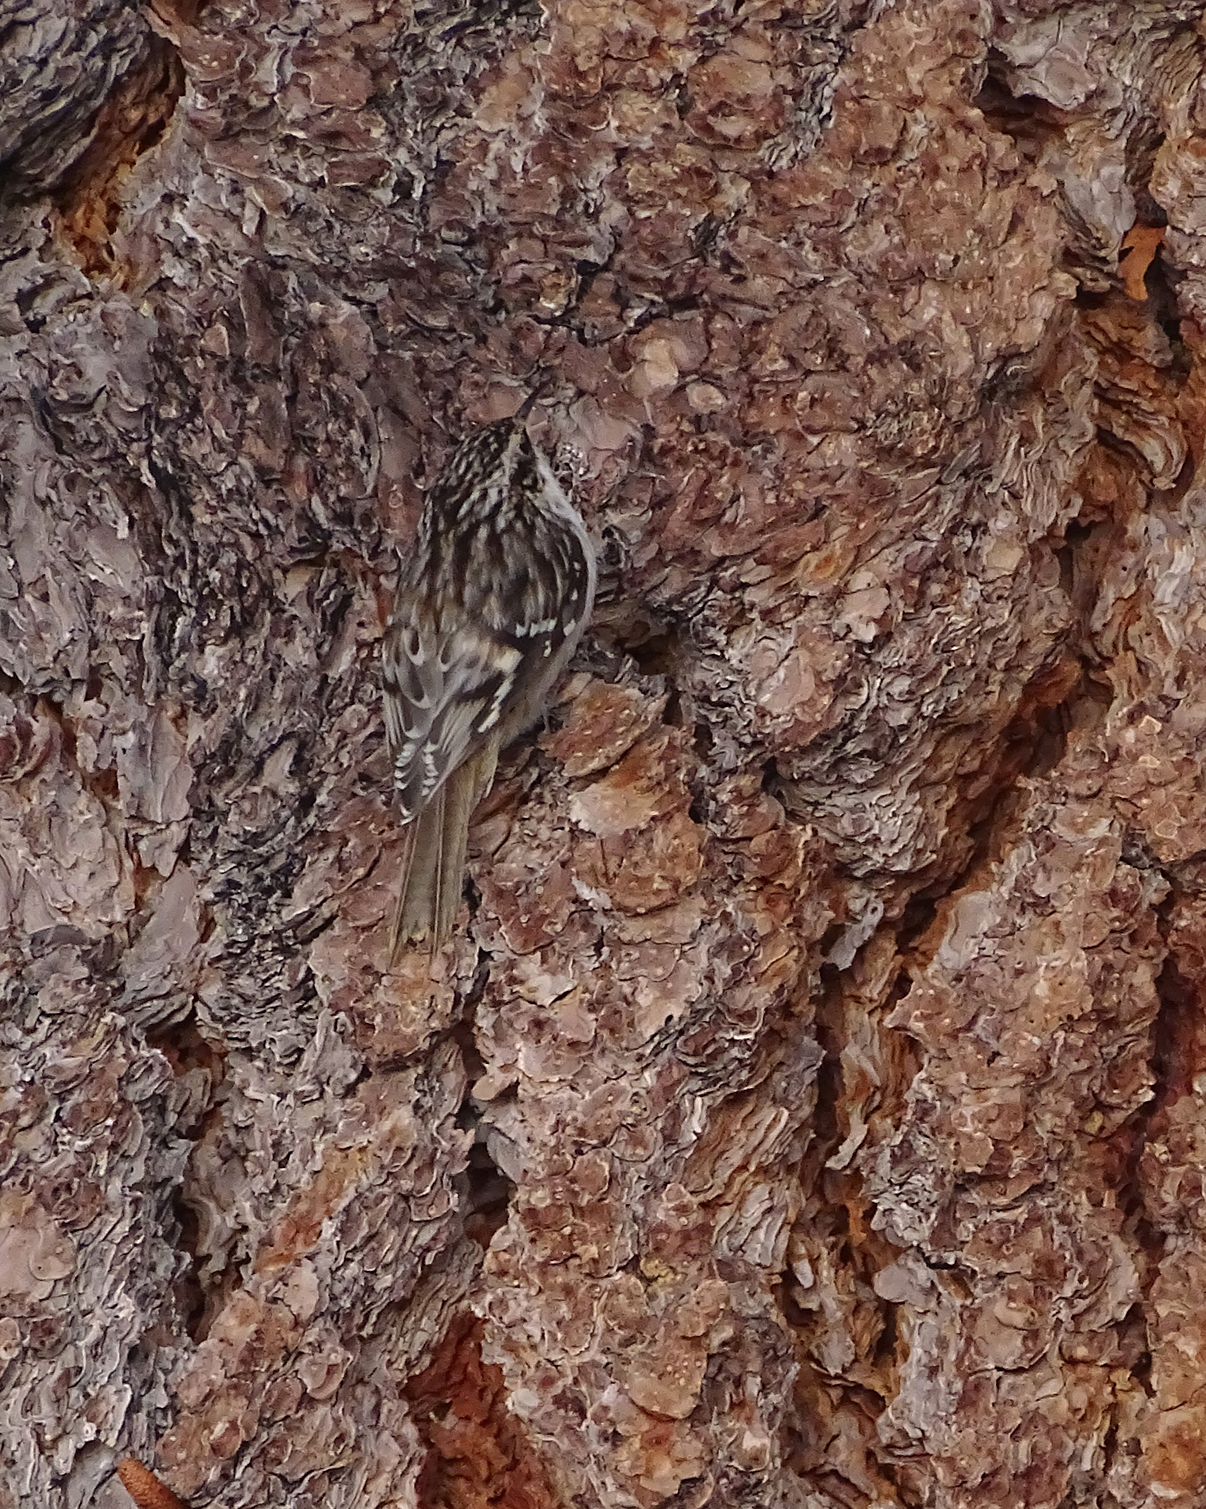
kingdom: Animalia
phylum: Chordata
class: Aves
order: Passeriformes
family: Certhiidae
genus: Certhia
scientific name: Certhia americana
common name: Brown creeper
